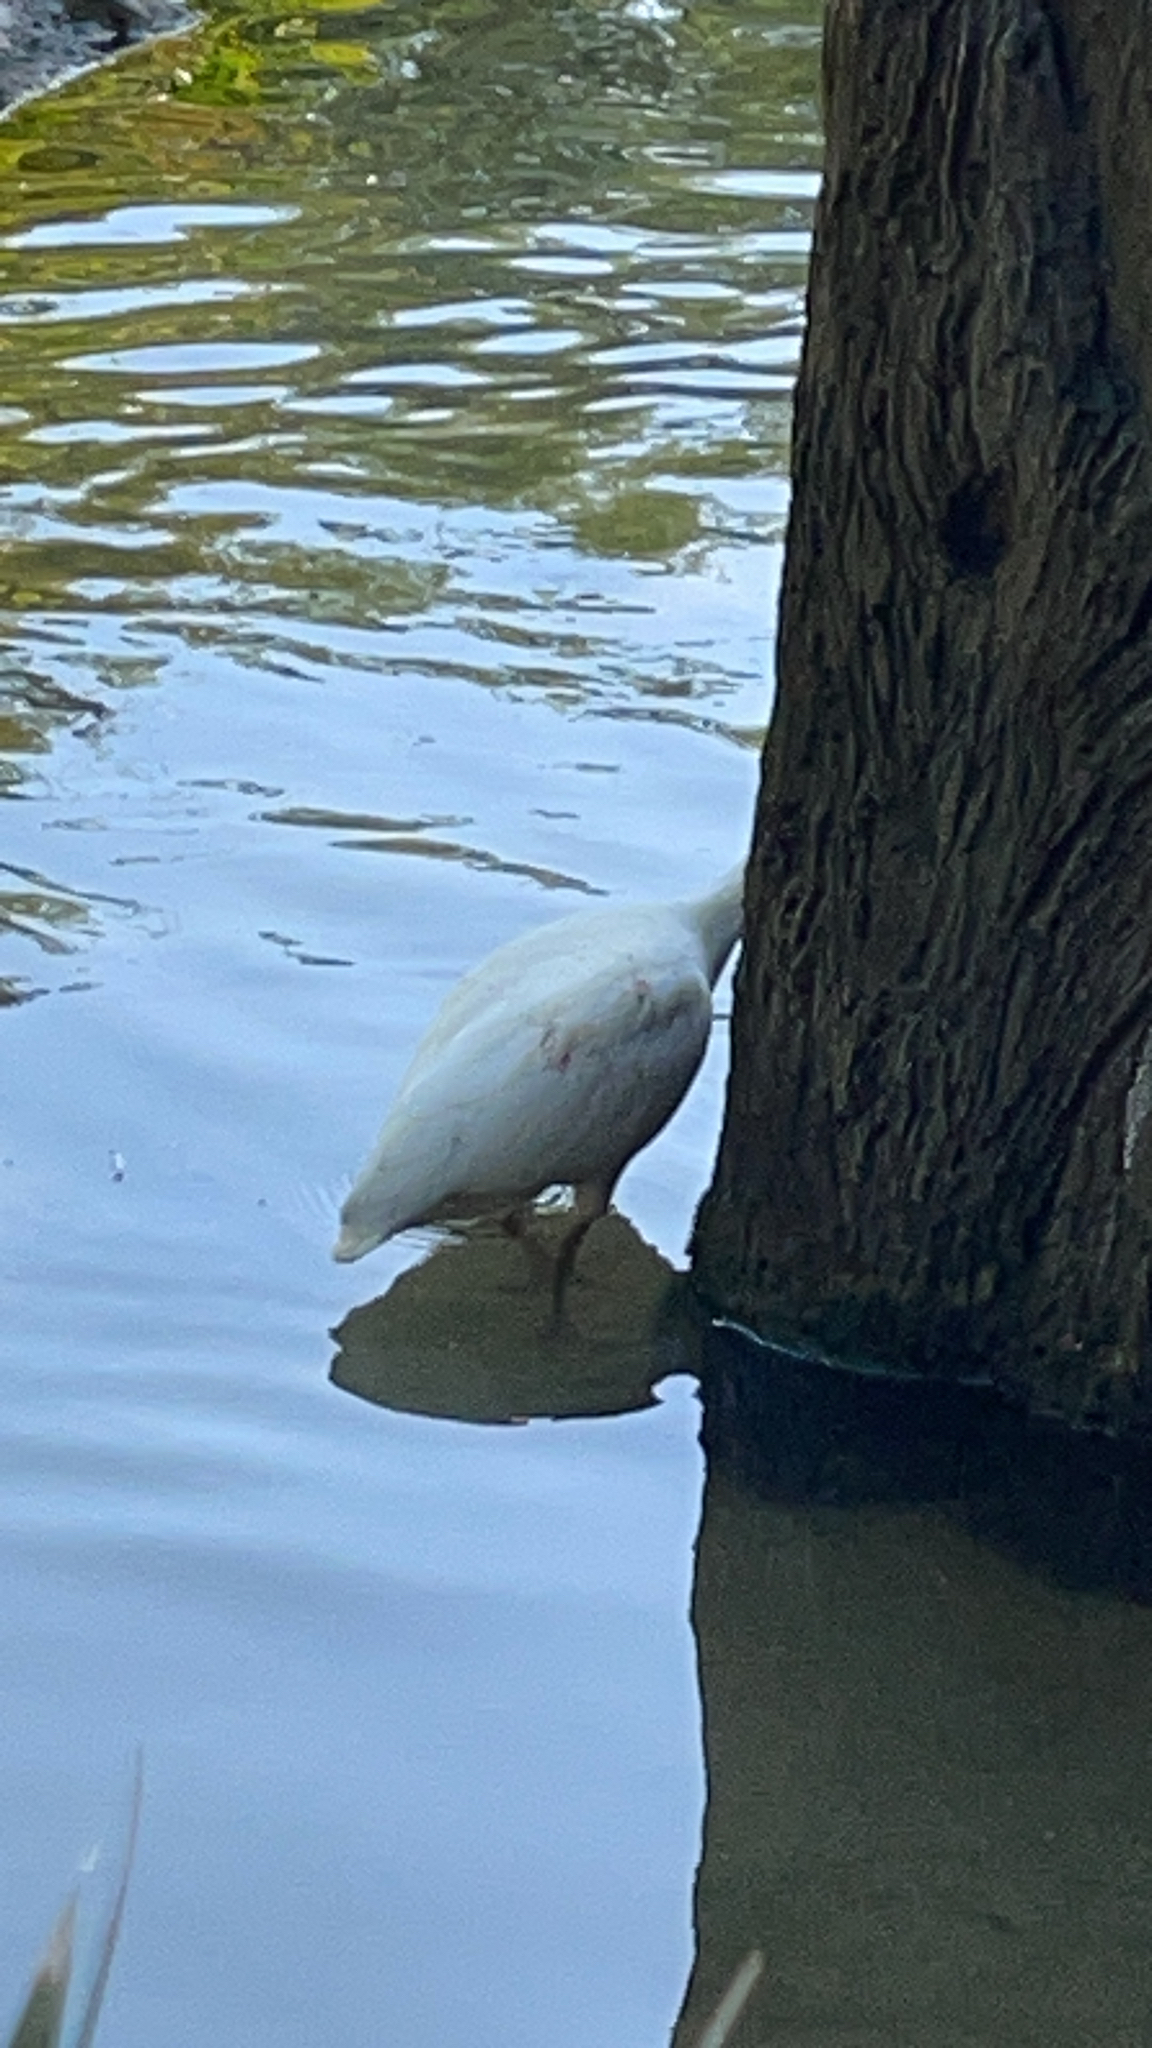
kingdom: Animalia
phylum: Chordata
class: Aves
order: Pelecaniformes
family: Threskiornithidae
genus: Eudocimus
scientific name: Eudocimus albus
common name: White ibis
